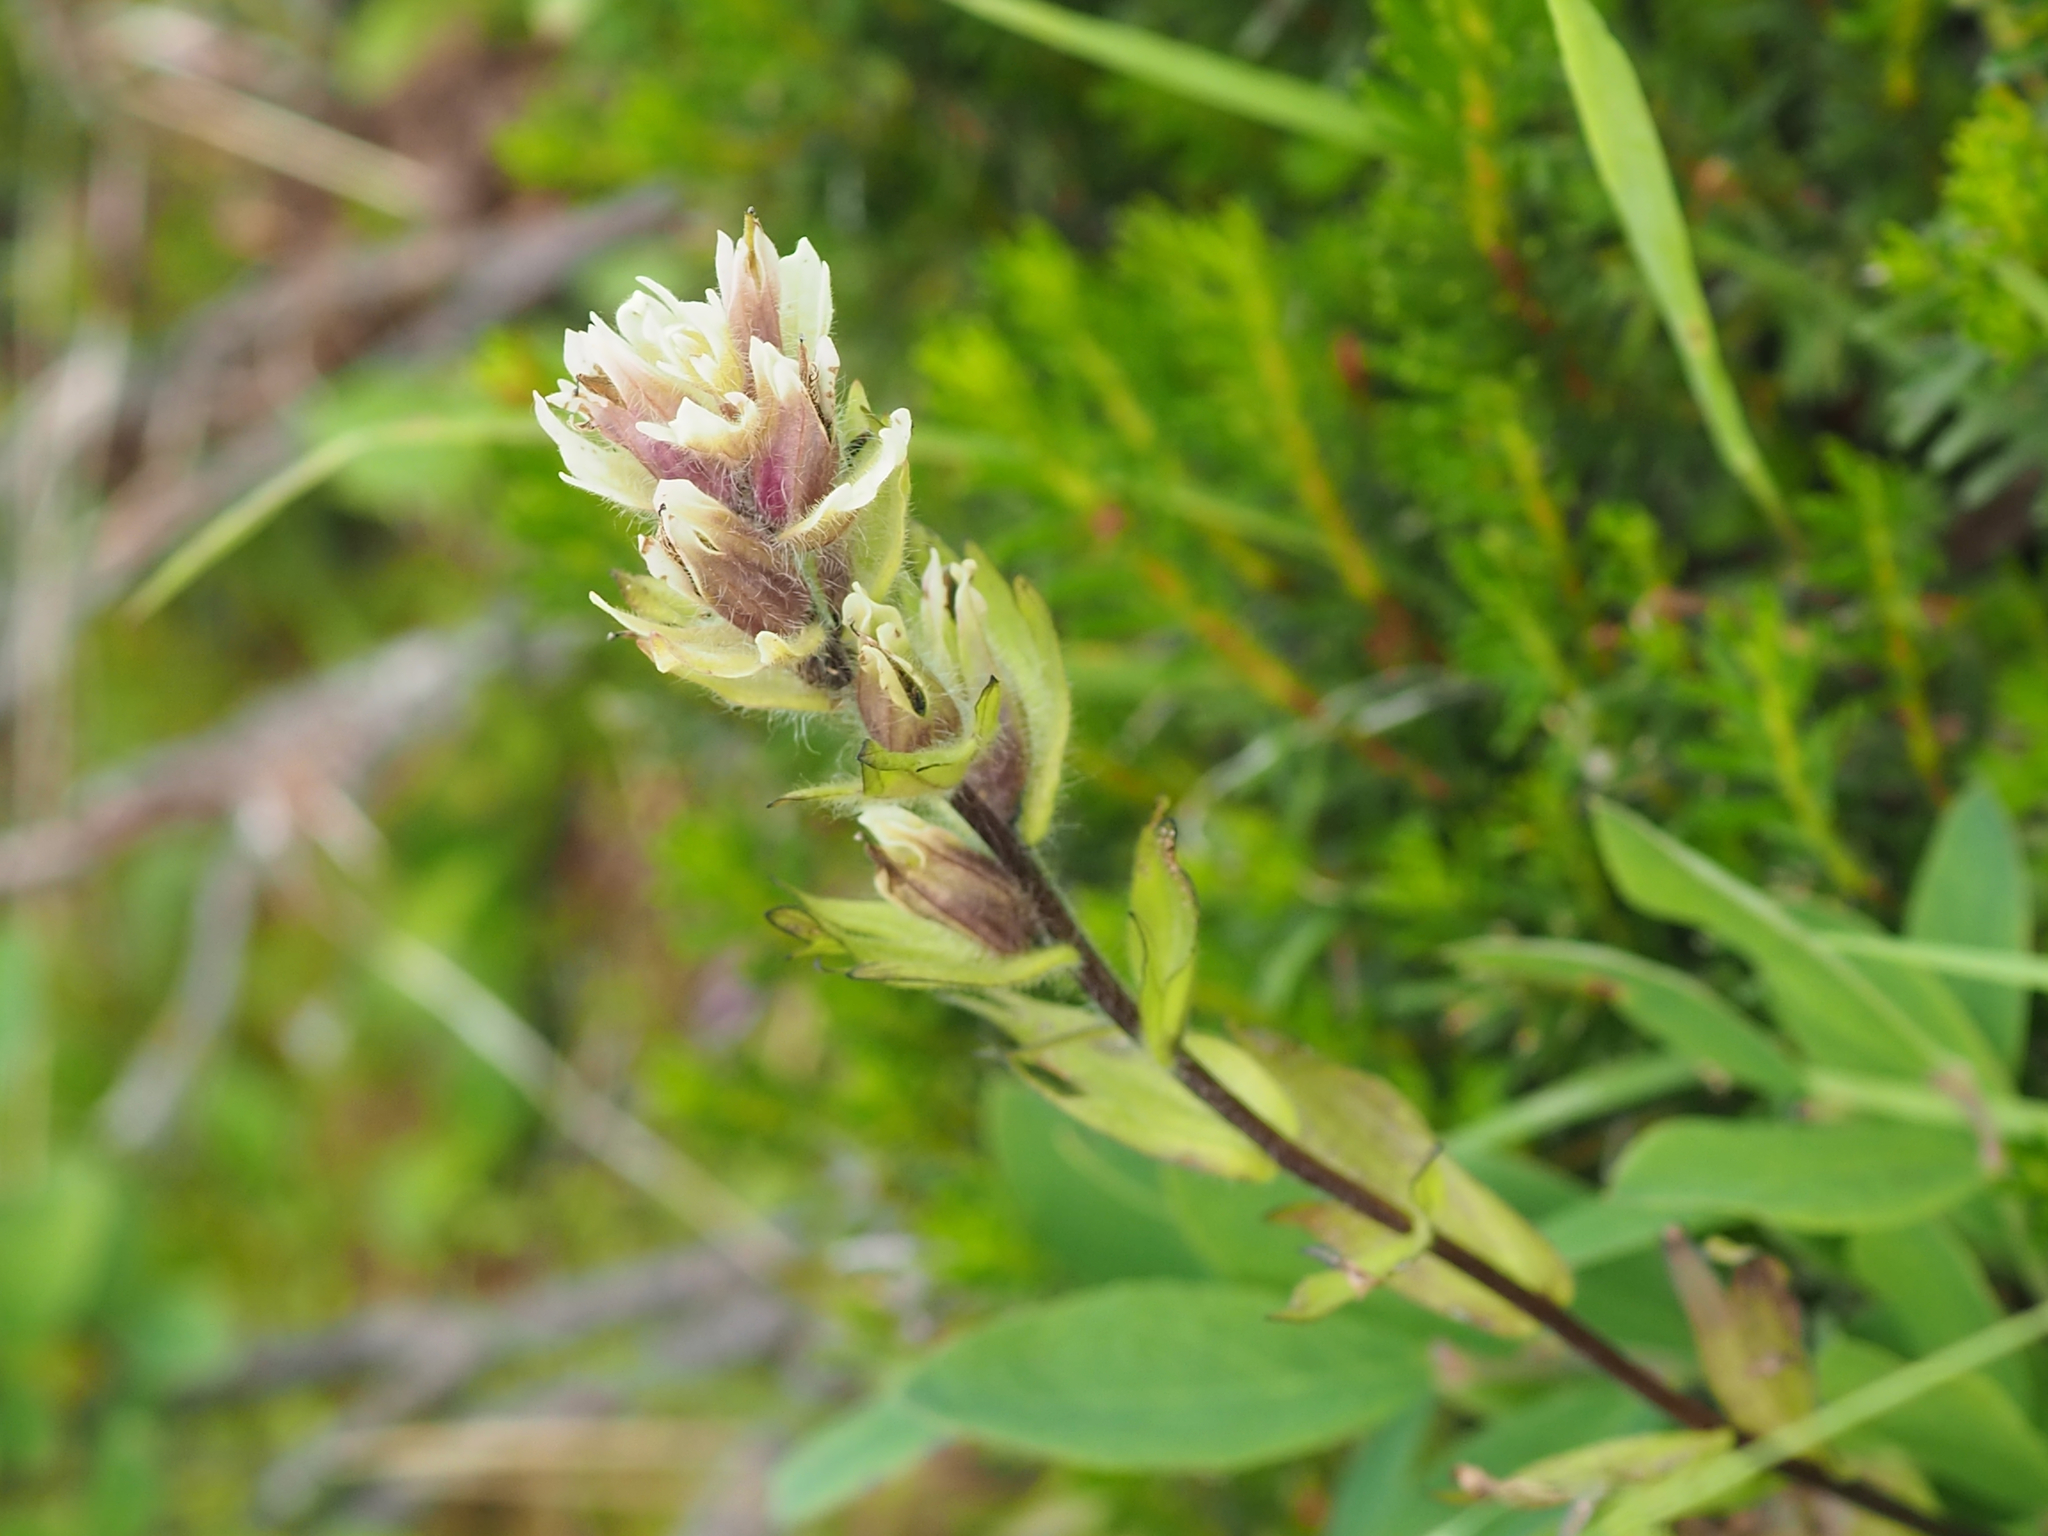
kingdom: Plantae
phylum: Tracheophyta
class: Magnoliopsida
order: Lamiales
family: Orobanchaceae
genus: Castilleja
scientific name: Castilleja parviflora
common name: Mountain paintbrush
